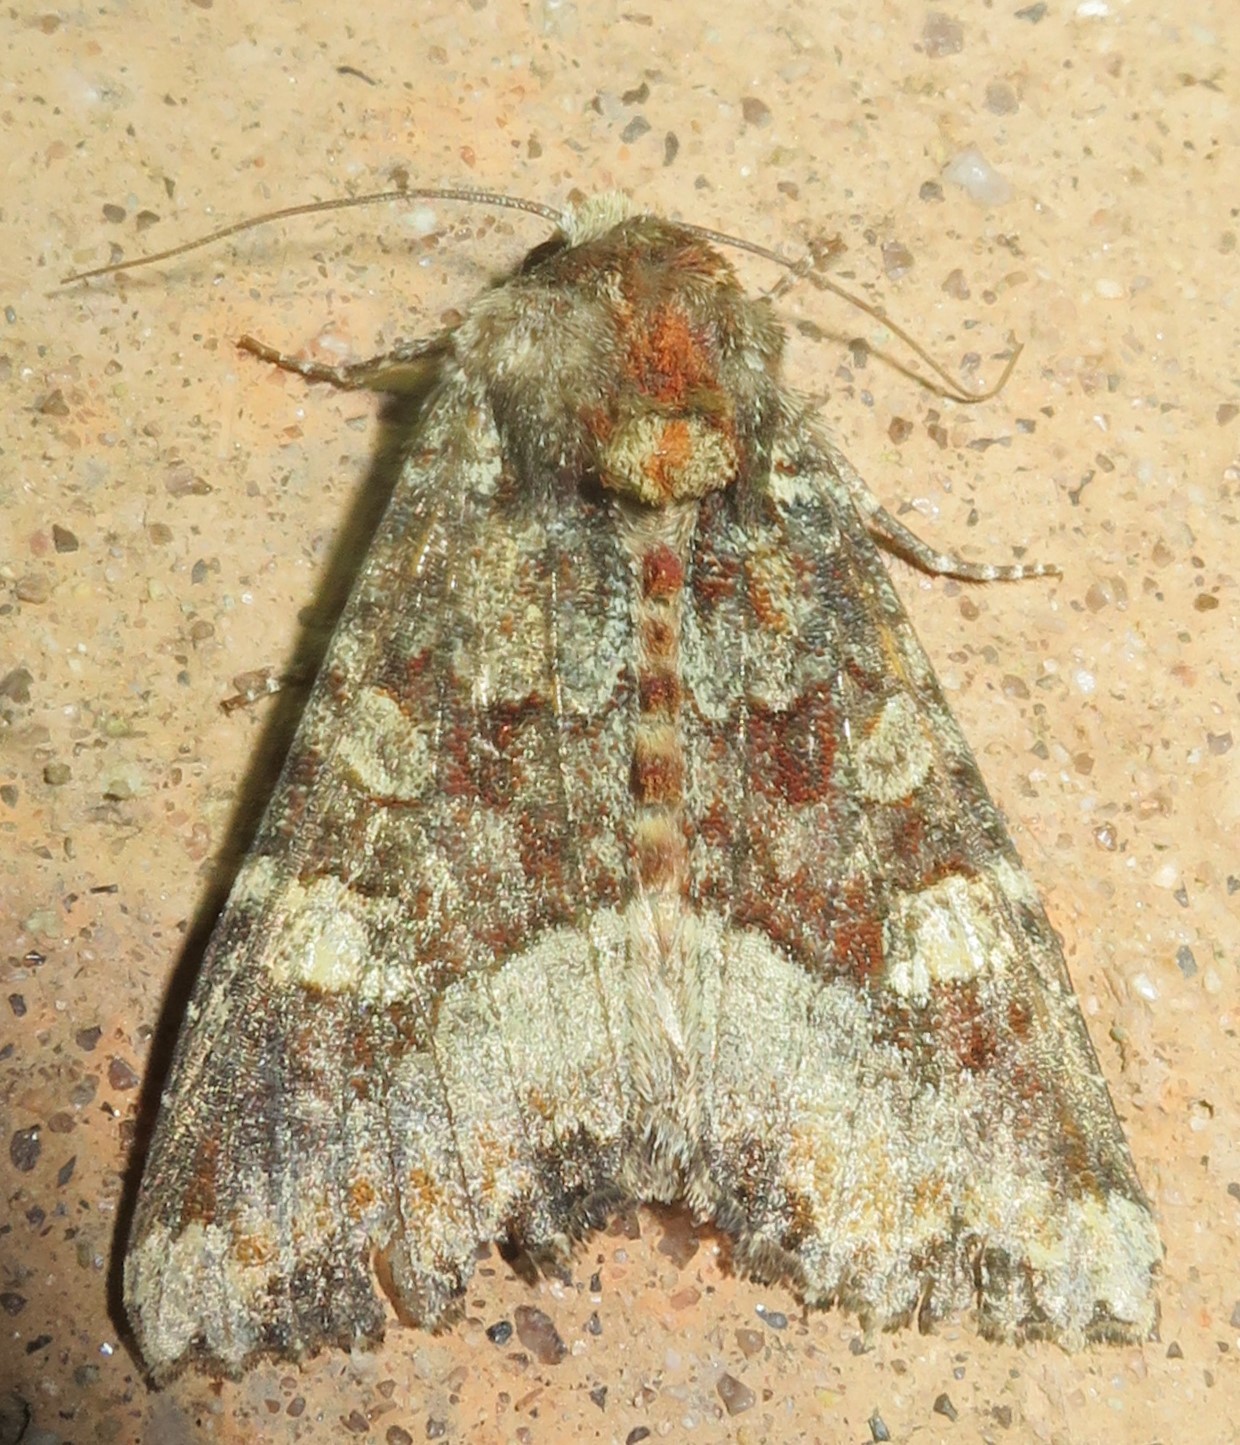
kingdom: Animalia
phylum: Arthropoda
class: Insecta
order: Lepidoptera
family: Noctuidae
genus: Apamea
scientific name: Apamea amputatrix
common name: Yellow-headed cutworm moth
